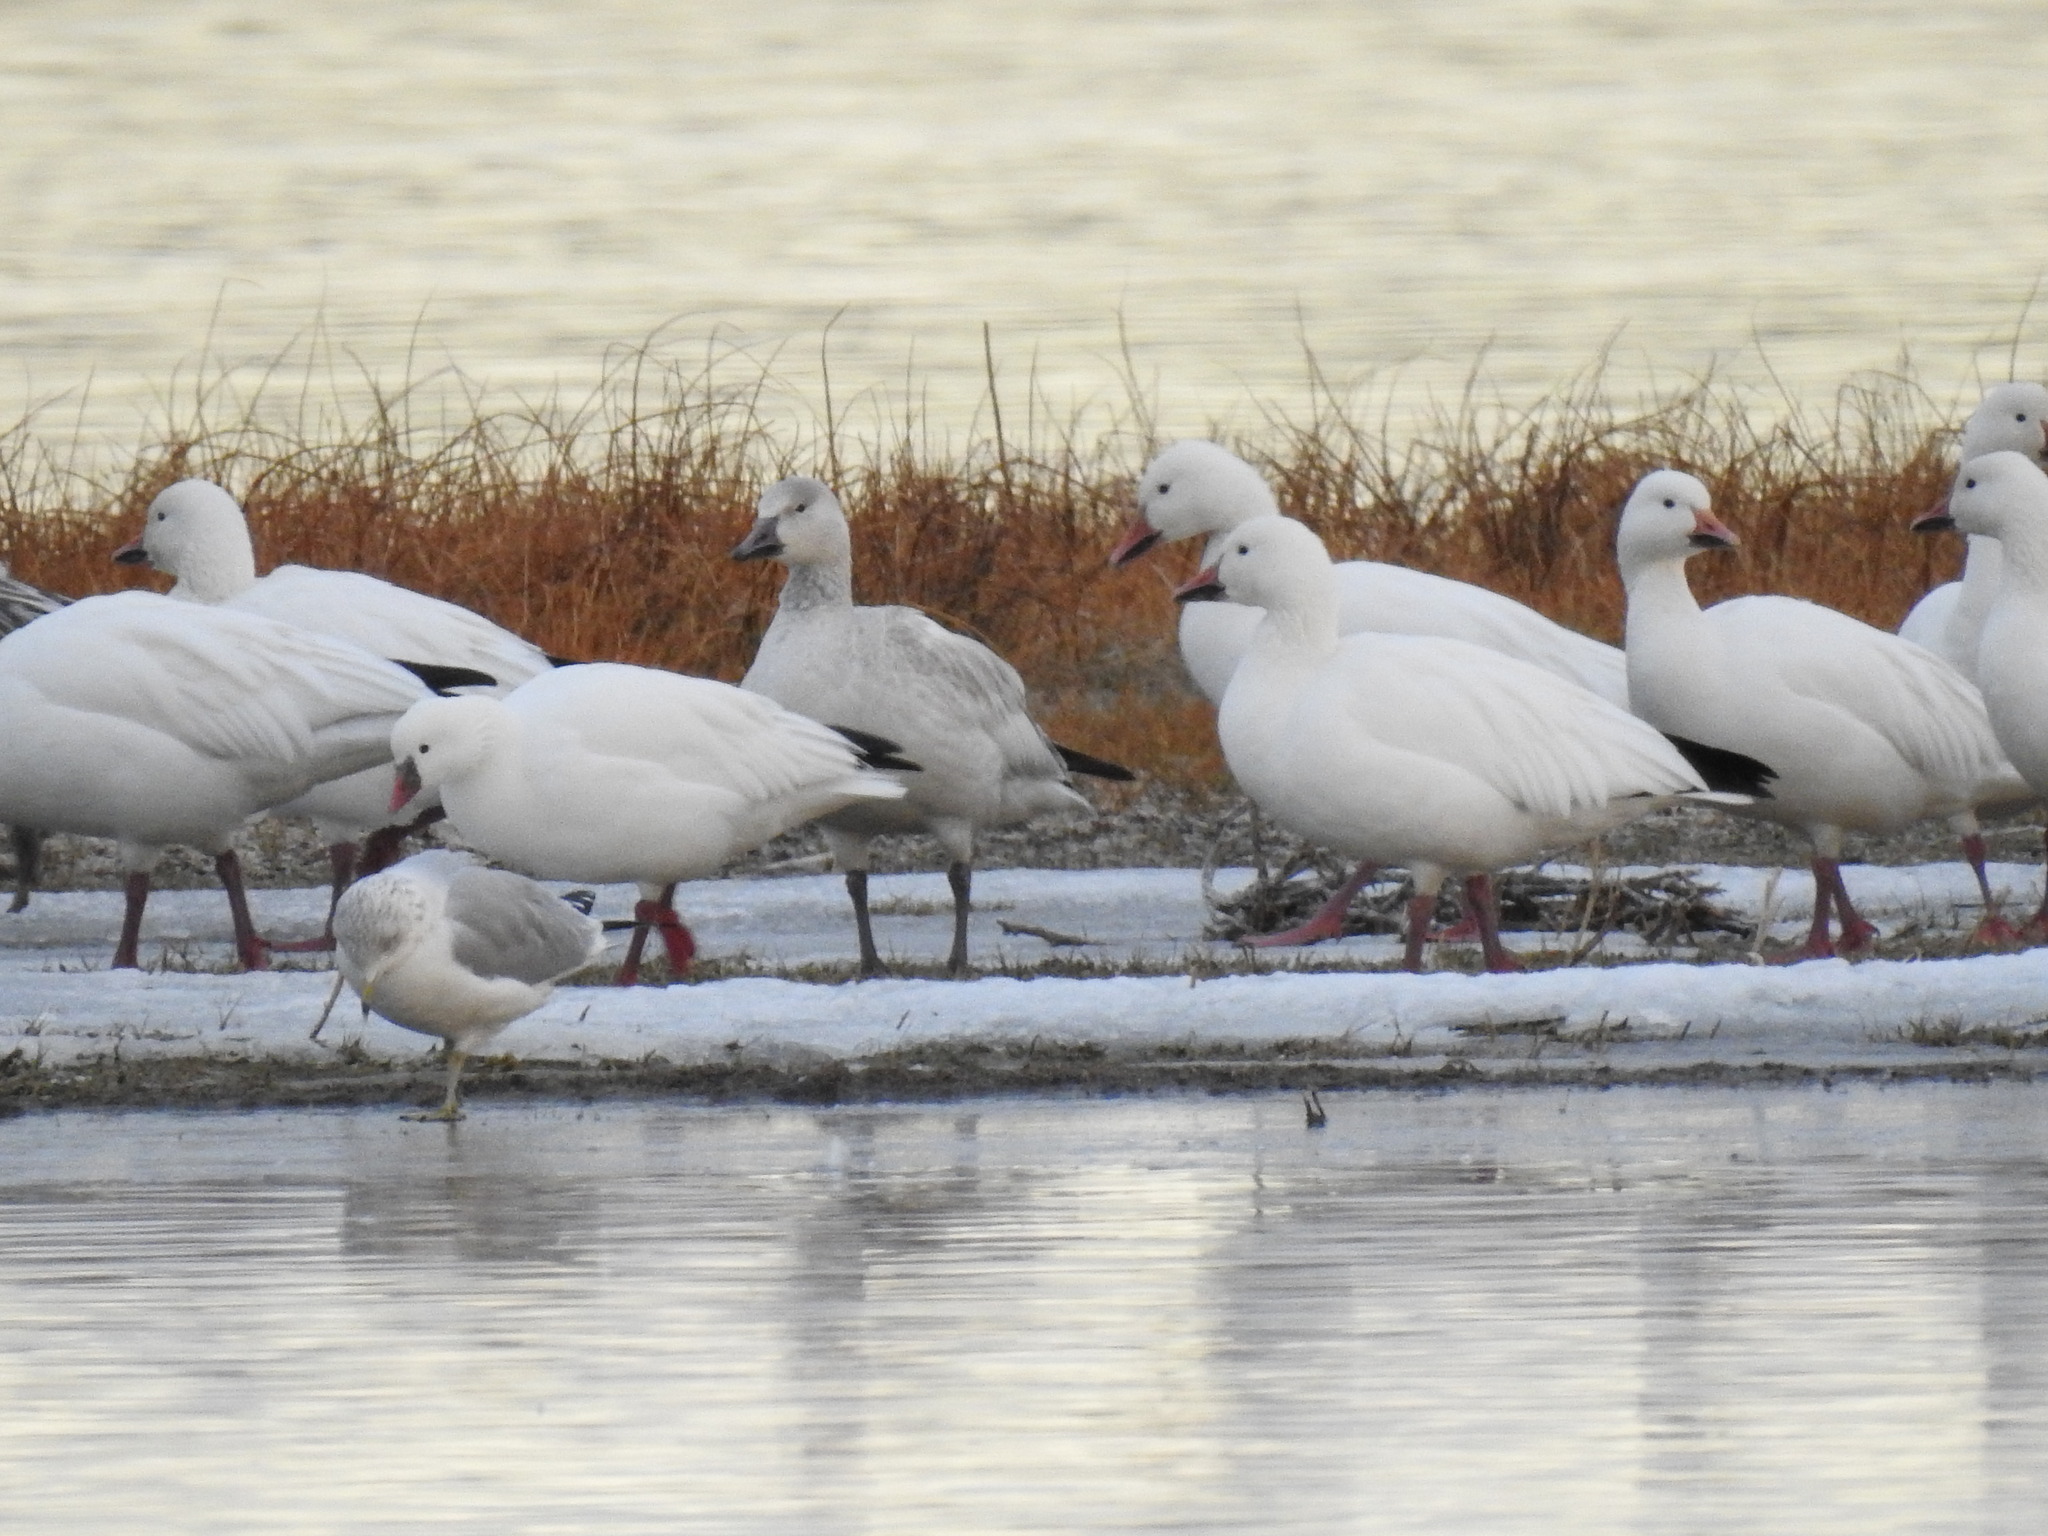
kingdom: Animalia
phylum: Chordata
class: Aves
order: Anseriformes
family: Anatidae
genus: Anser
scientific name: Anser caerulescens
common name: Snow goose
